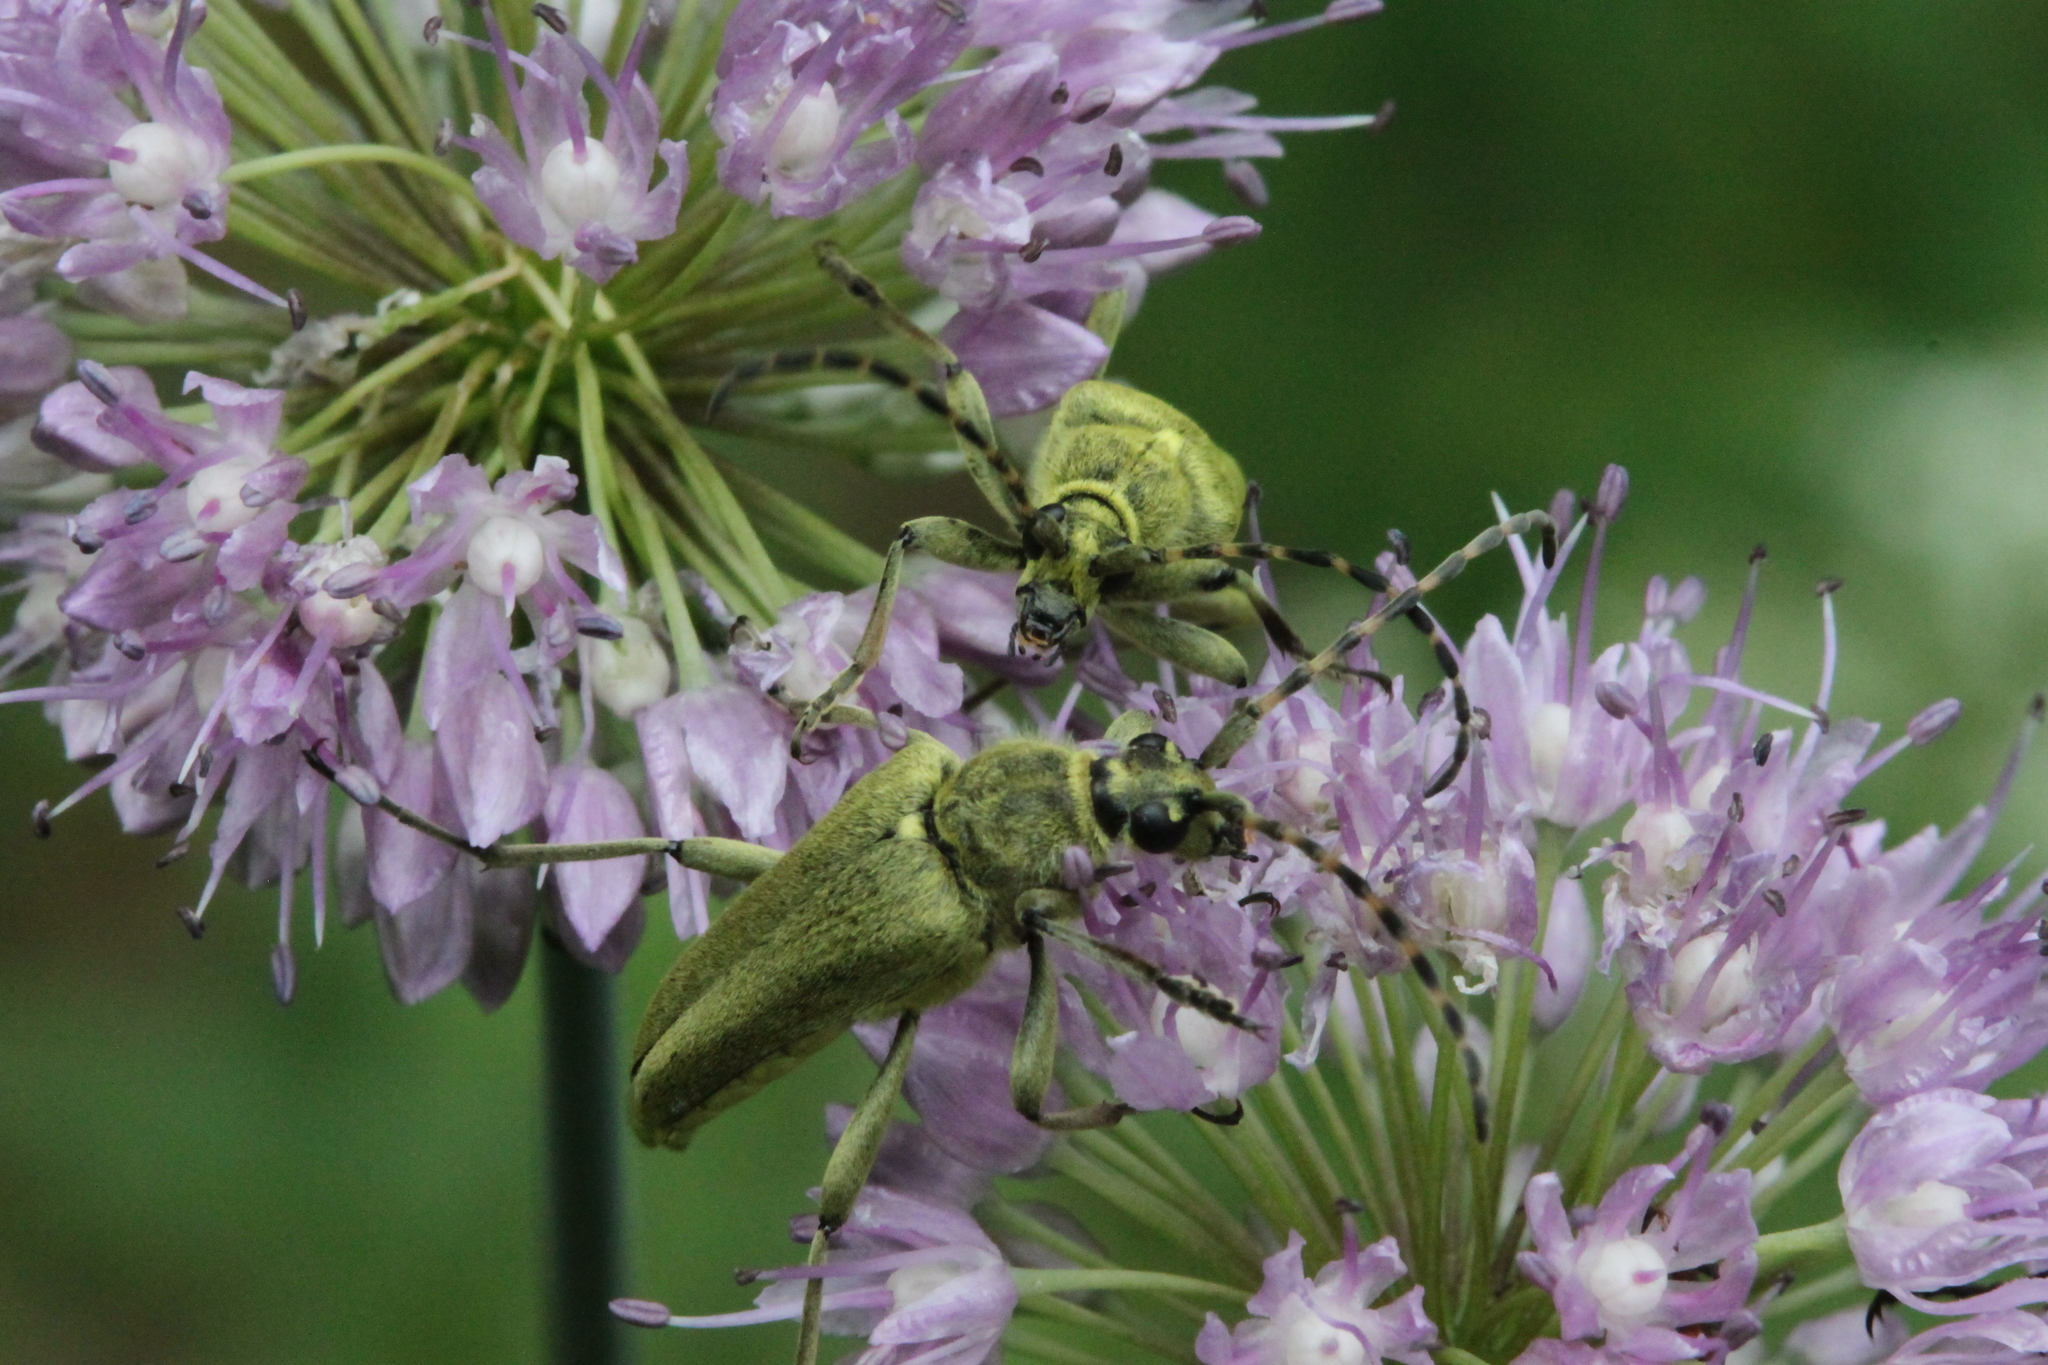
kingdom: Animalia
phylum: Arthropoda
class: Insecta
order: Coleoptera
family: Cerambycidae
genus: Lepturobosca
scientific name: Lepturobosca virens
